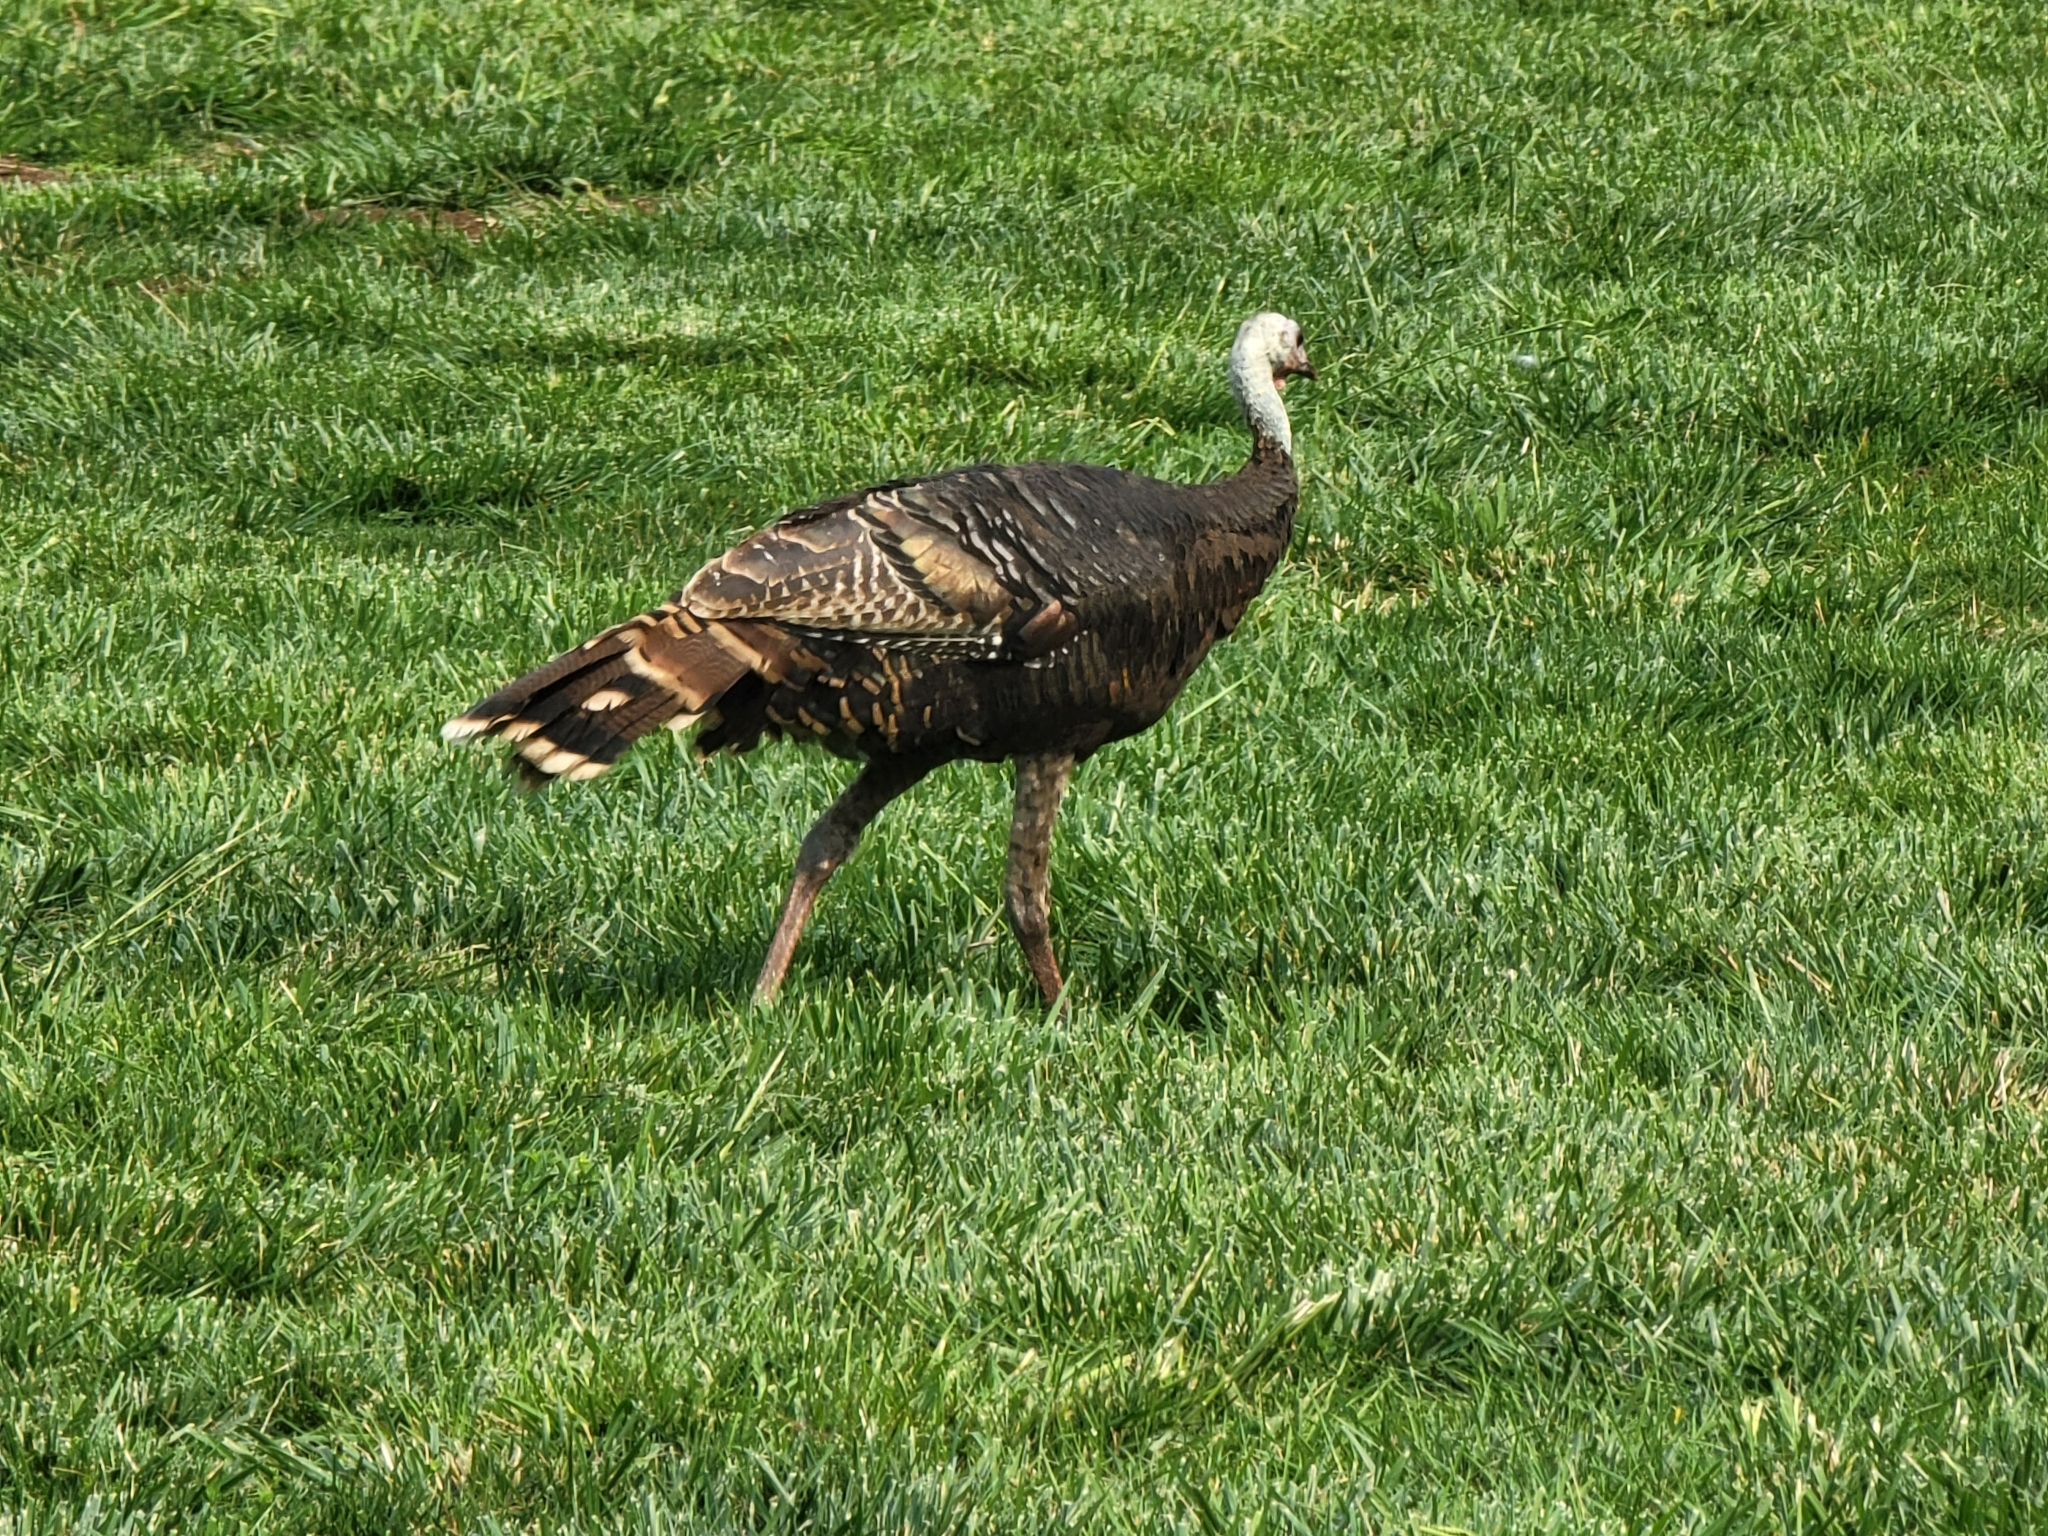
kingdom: Animalia
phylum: Chordata
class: Aves
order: Galliformes
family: Phasianidae
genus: Meleagris
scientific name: Meleagris gallopavo
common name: Wild turkey
